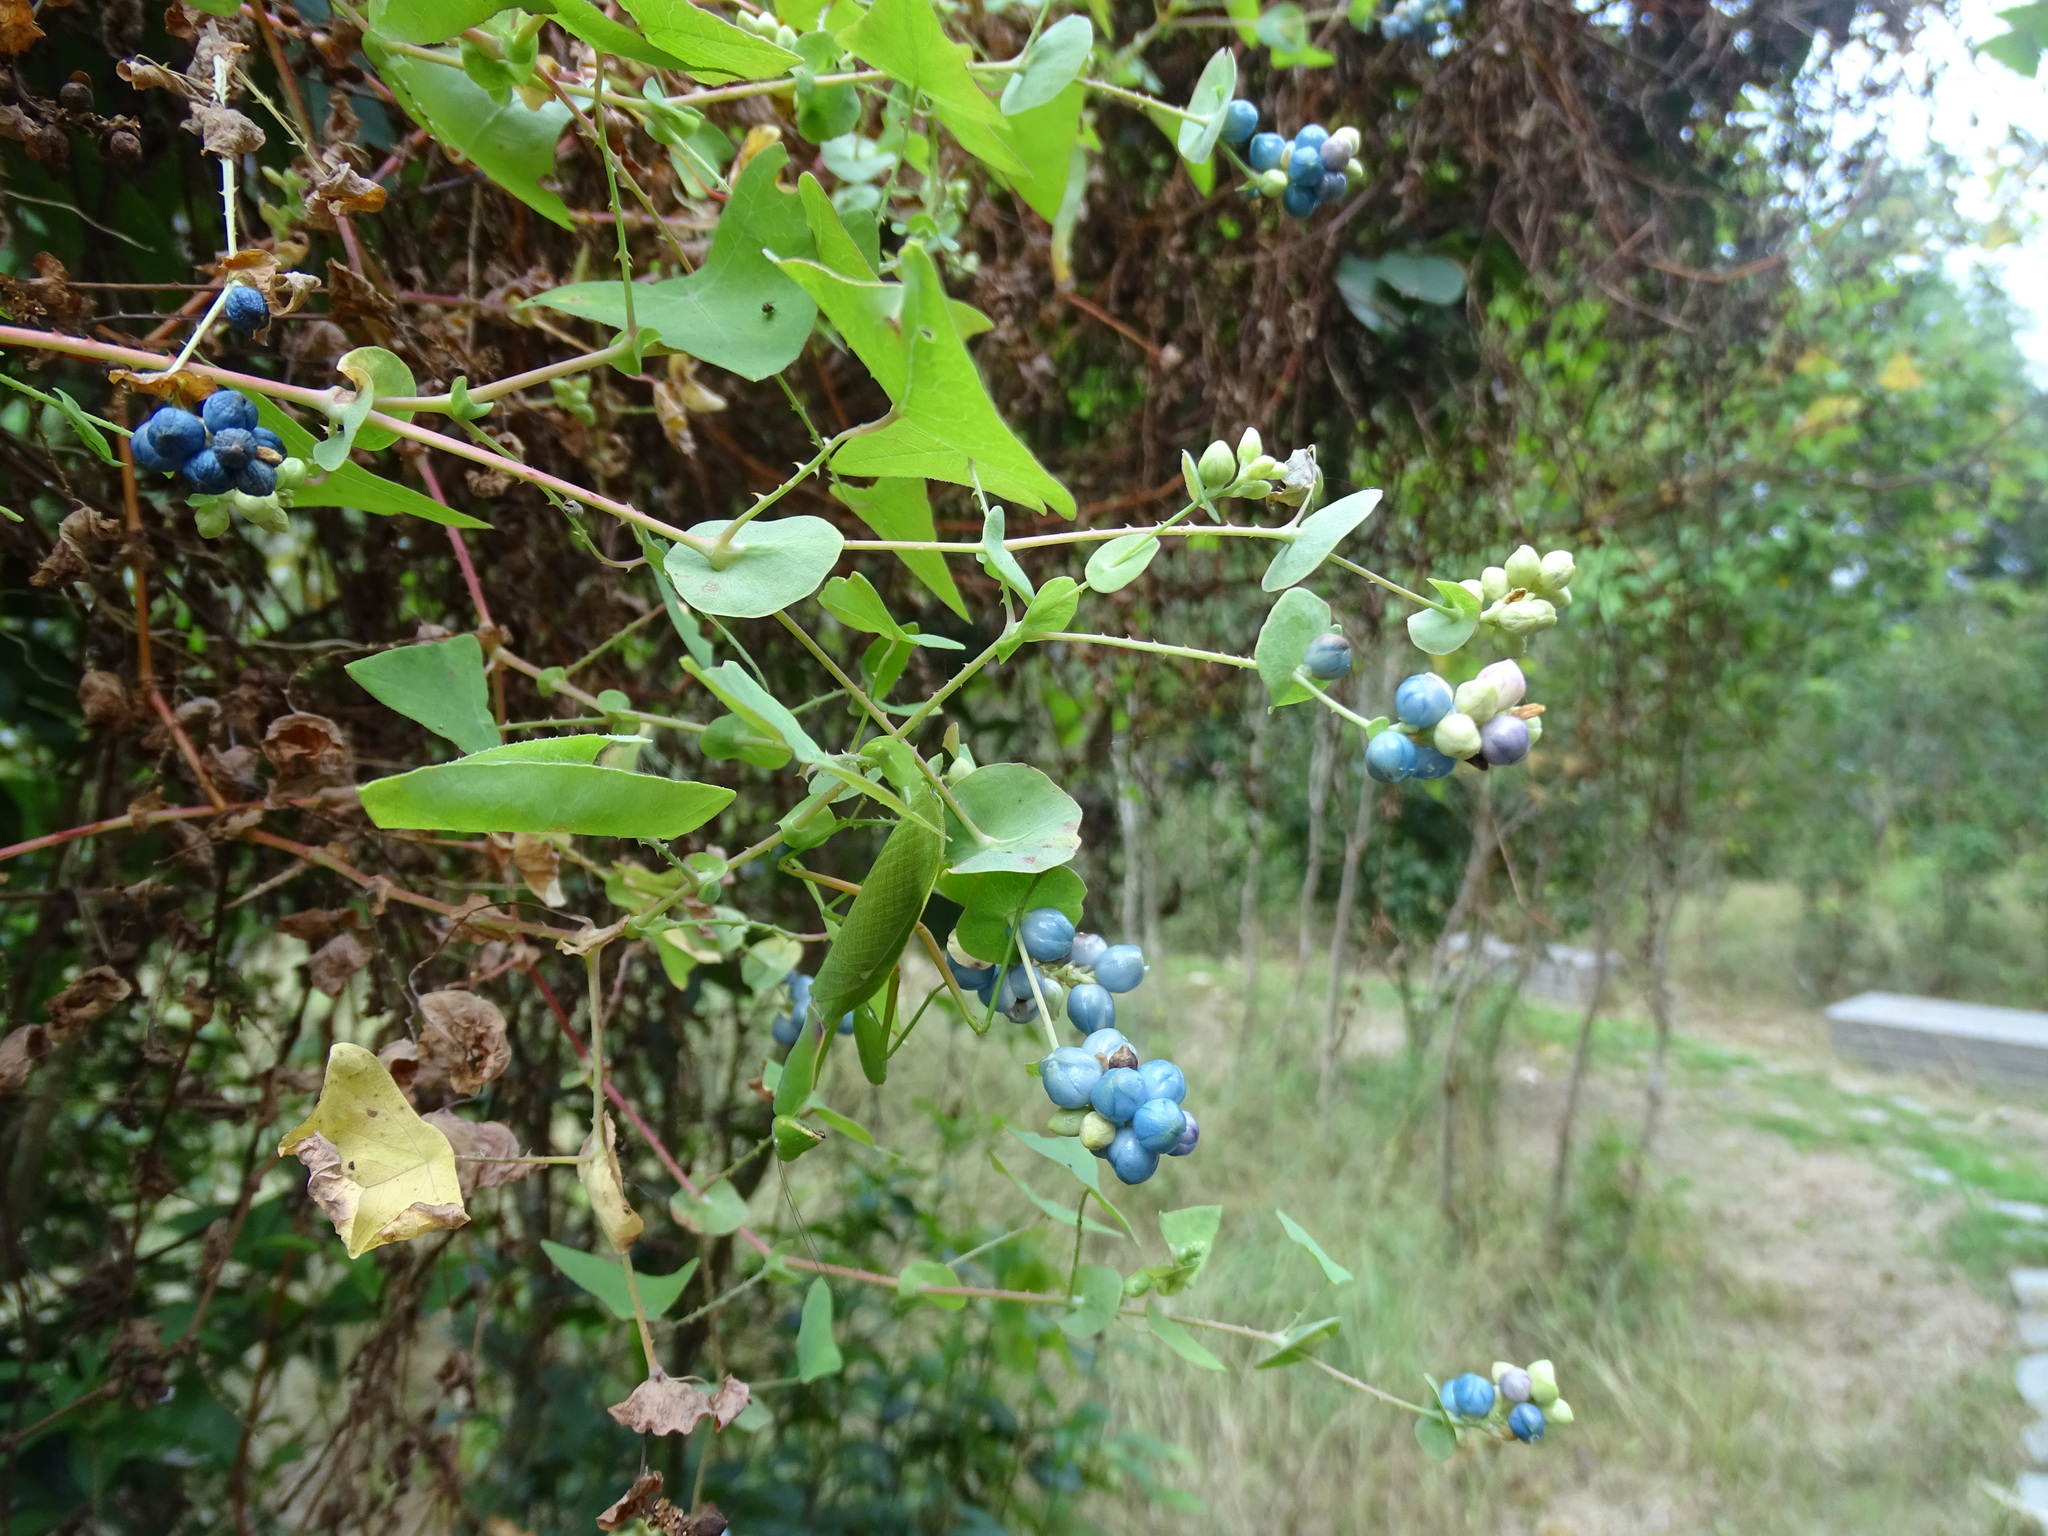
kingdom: Plantae
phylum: Tracheophyta
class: Magnoliopsida
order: Caryophyllales
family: Polygonaceae
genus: Persicaria
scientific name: Persicaria perfoliata
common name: Asiatic tearthumb
